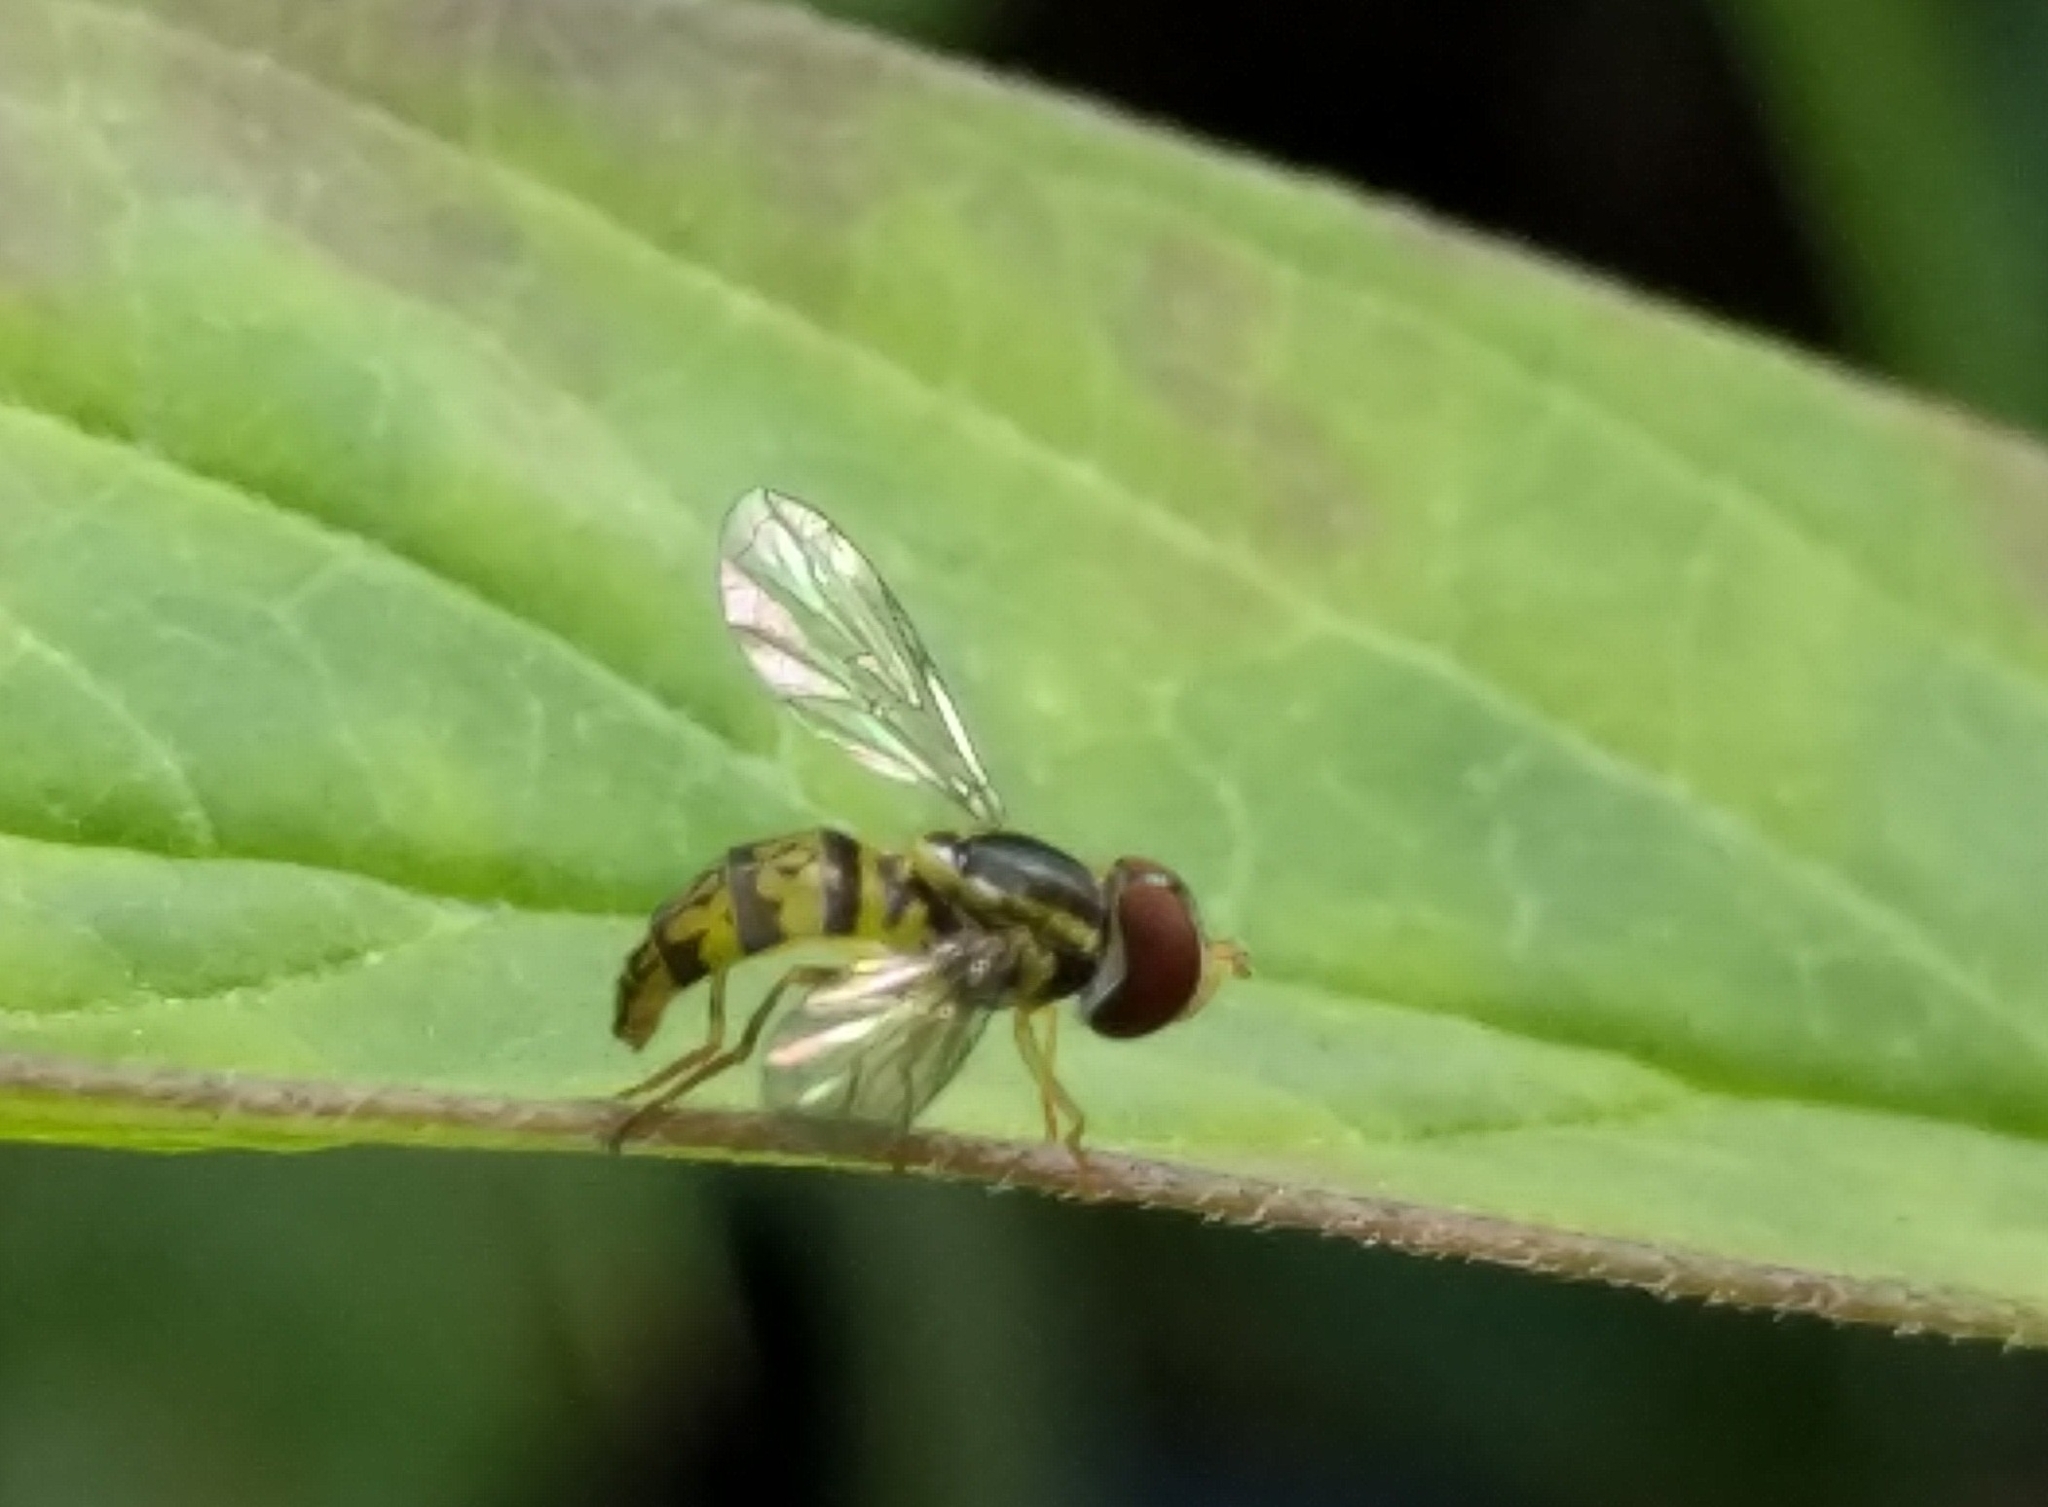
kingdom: Animalia
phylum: Arthropoda
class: Insecta
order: Diptera
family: Syrphidae
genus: Toxomerus
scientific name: Toxomerus geminatus
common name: Eastern calligrapher
